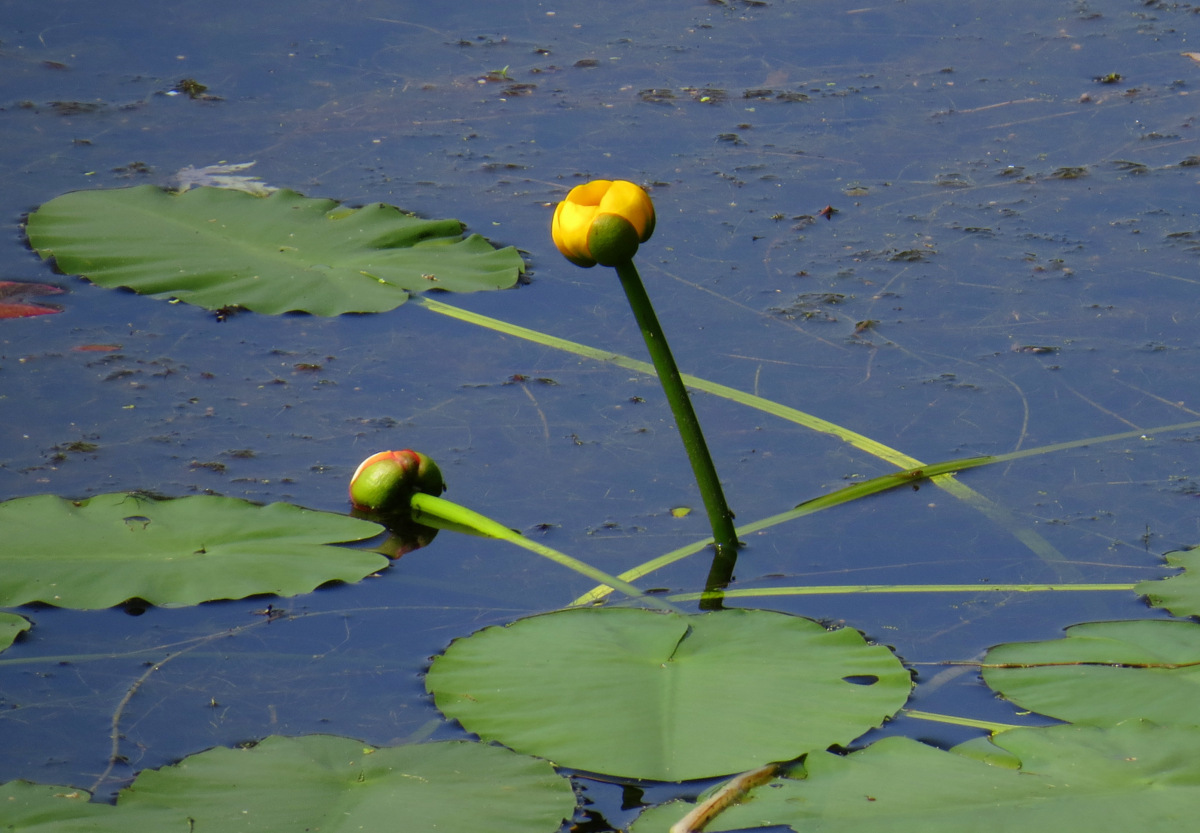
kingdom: Plantae
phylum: Tracheophyta
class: Magnoliopsida
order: Nymphaeales
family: Nymphaeaceae
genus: Nuphar
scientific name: Nuphar variegata
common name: Beaver-root
